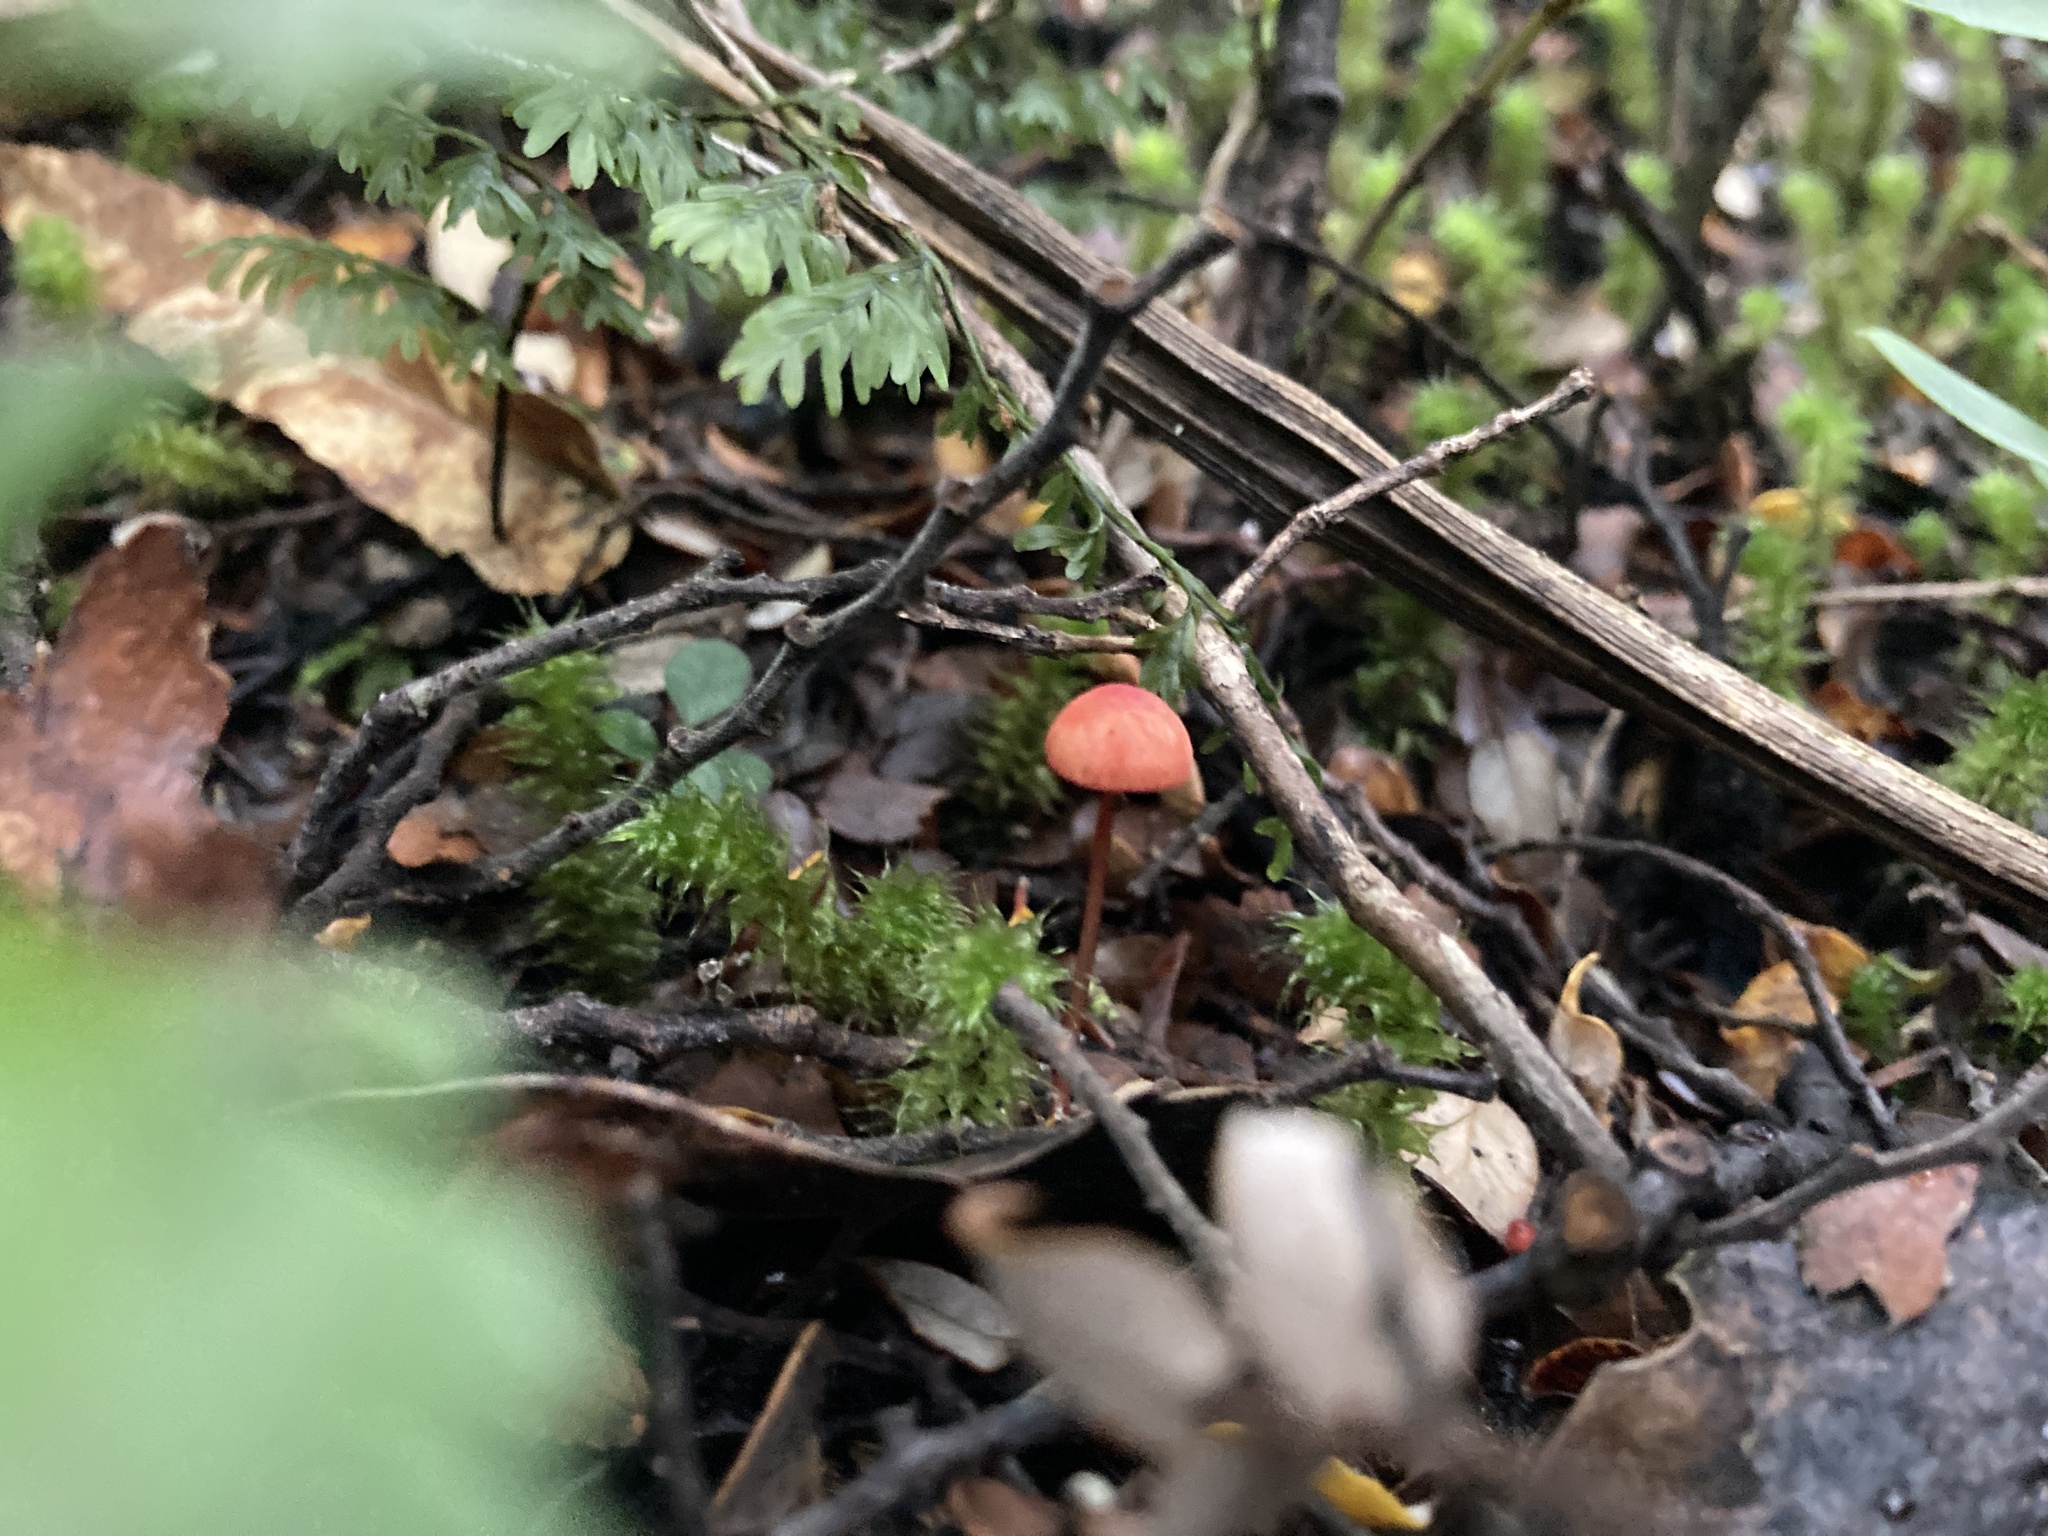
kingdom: Fungi
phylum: Basidiomycota
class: Agaricomycetes
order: Agaricales
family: Mycenaceae
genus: Mycena
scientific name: Mycena ura
